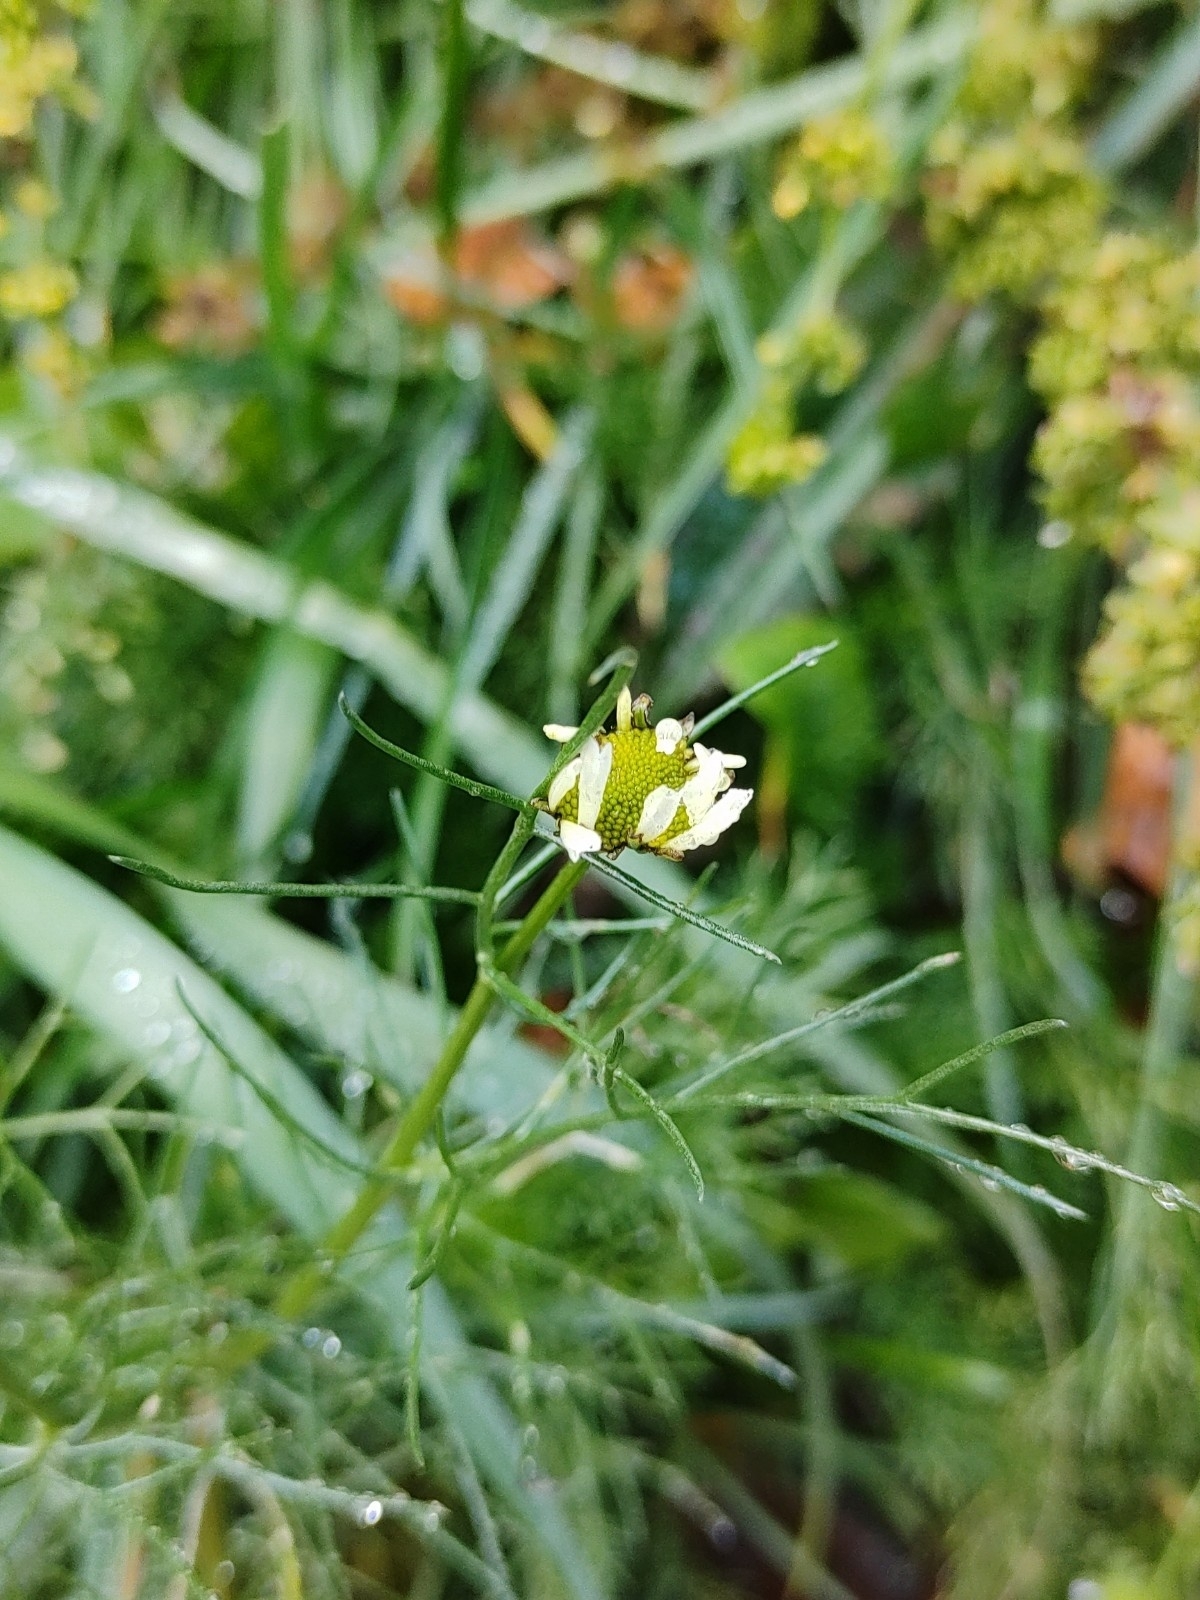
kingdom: Plantae
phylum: Tracheophyta
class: Magnoliopsida
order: Asterales
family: Asteraceae
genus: Tripleurospermum
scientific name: Tripleurospermum inodorum
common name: Scentless mayweed
